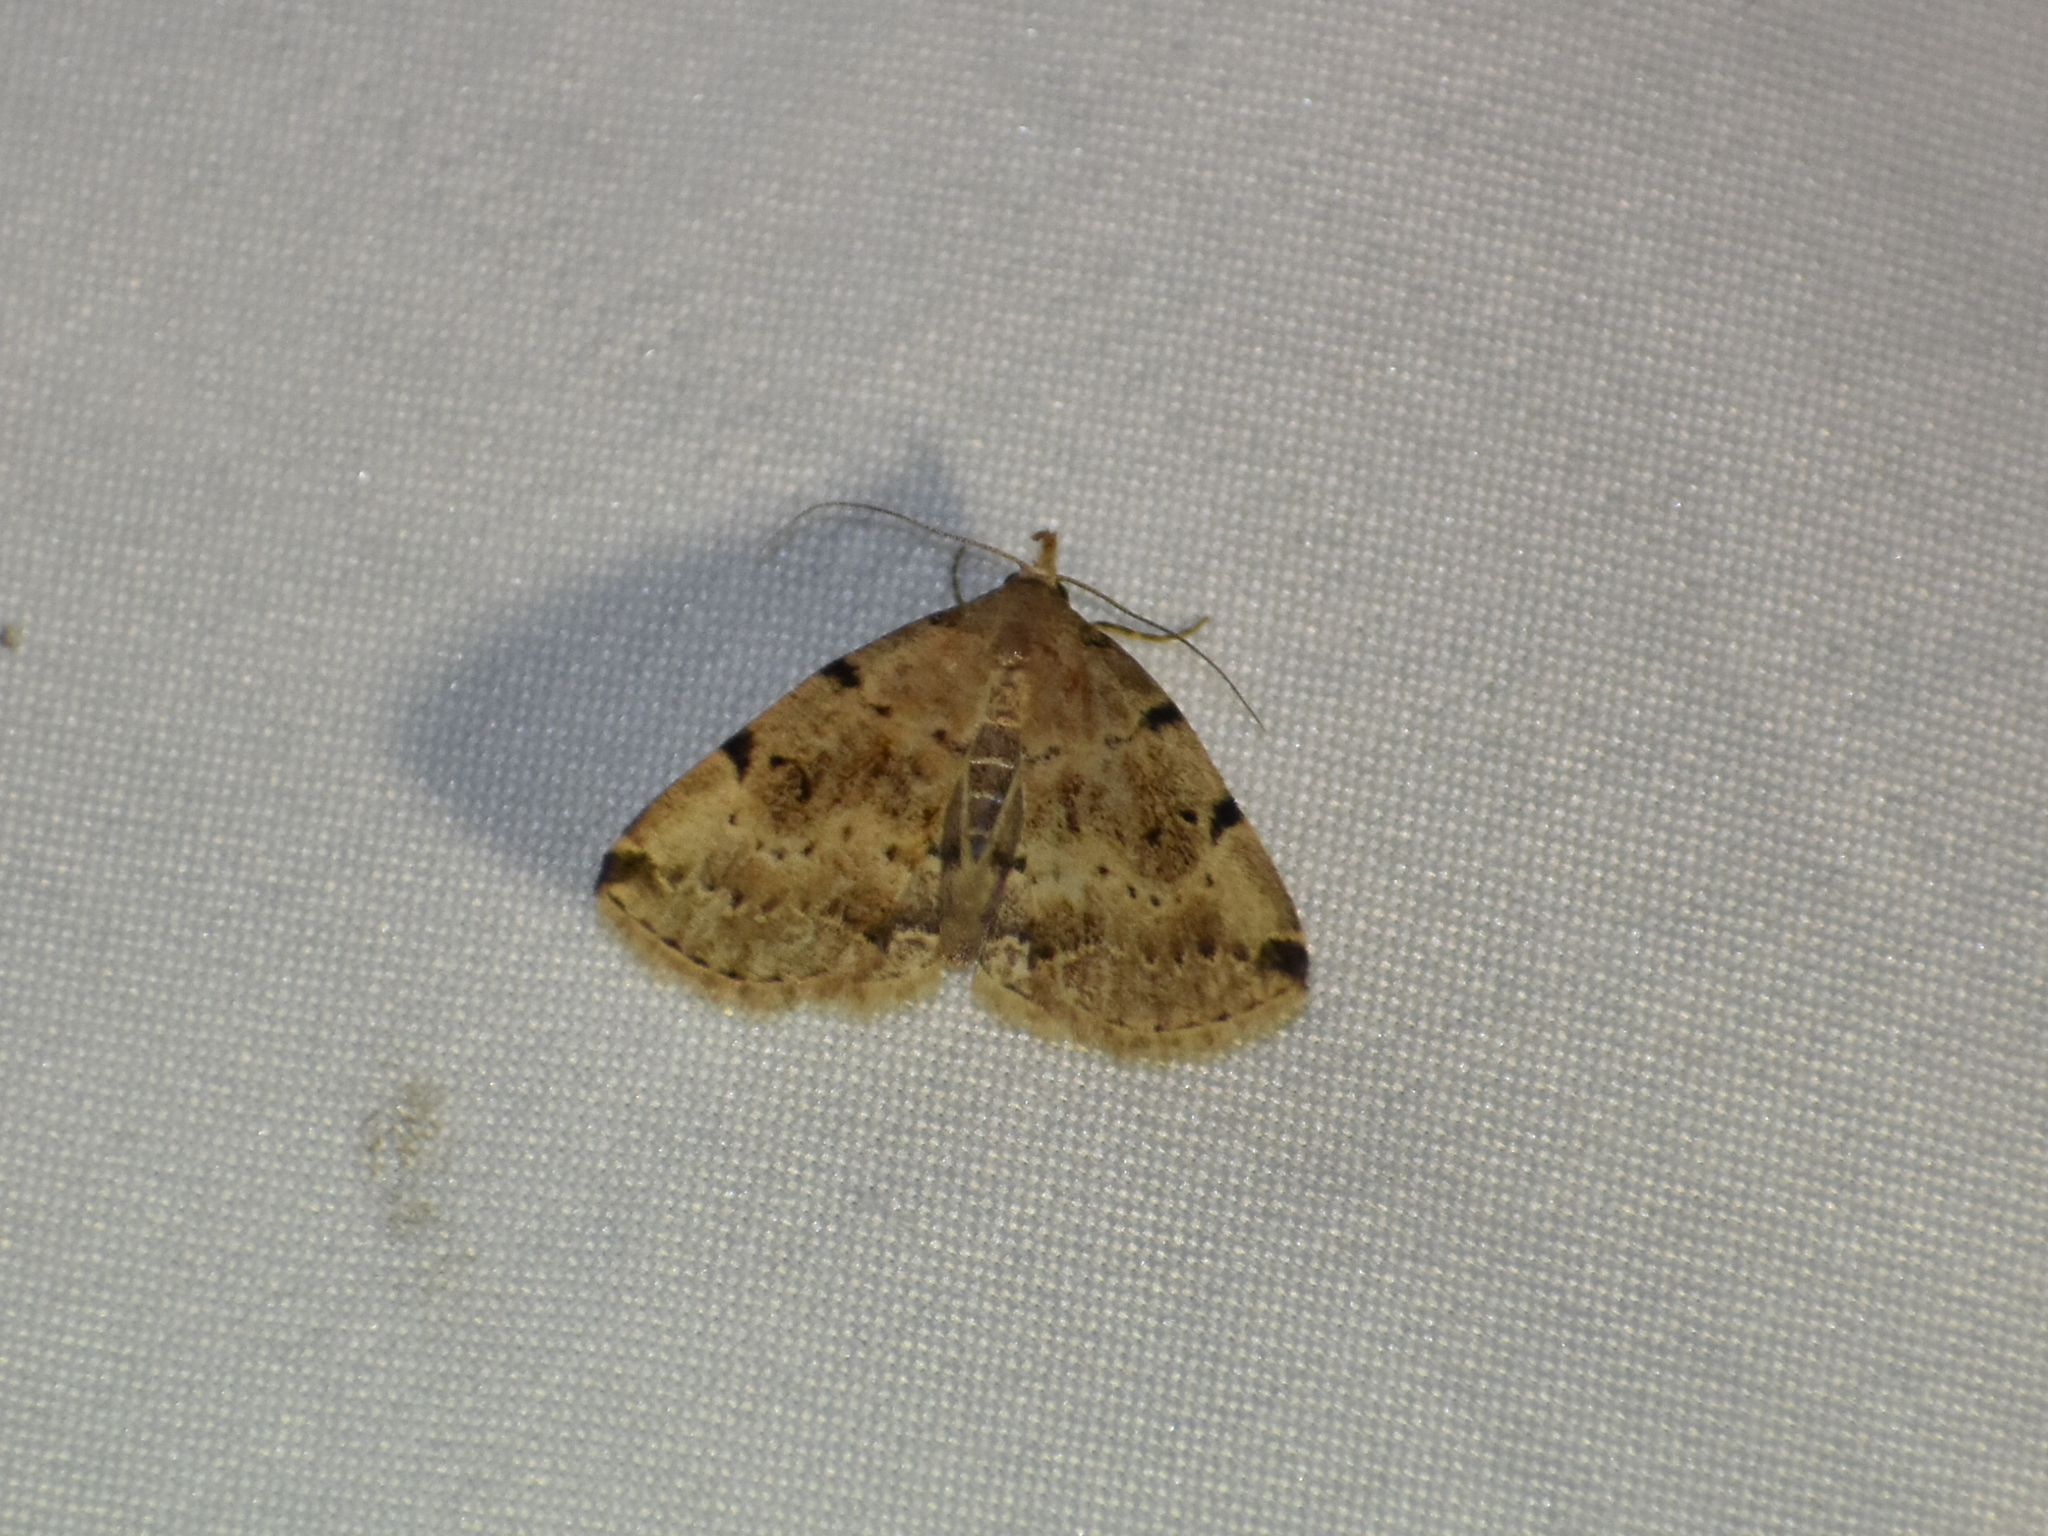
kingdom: Animalia
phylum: Arthropoda
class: Insecta
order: Lepidoptera
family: Erebidae
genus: Zanclognatha
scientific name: Zanclognatha lituralis
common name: Lettered fan-foot
